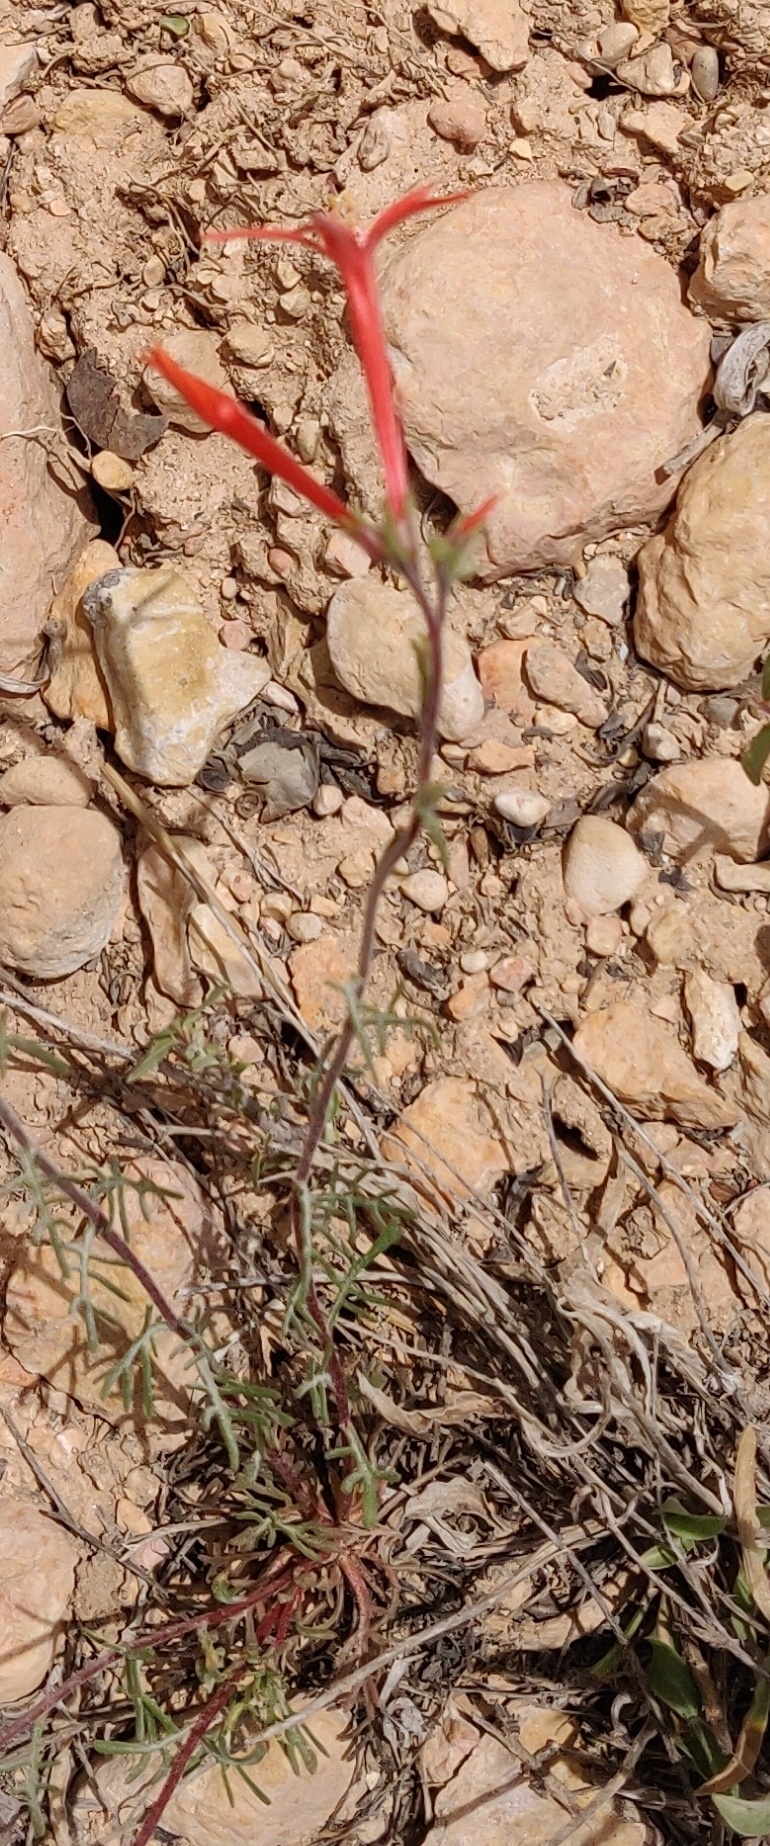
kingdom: Plantae
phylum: Tracheophyta
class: Magnoliopsida
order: Ericales
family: Polemoniaceae
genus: Ipomopsis
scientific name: Ipomopsis aggregata
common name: Scarlet gilia
